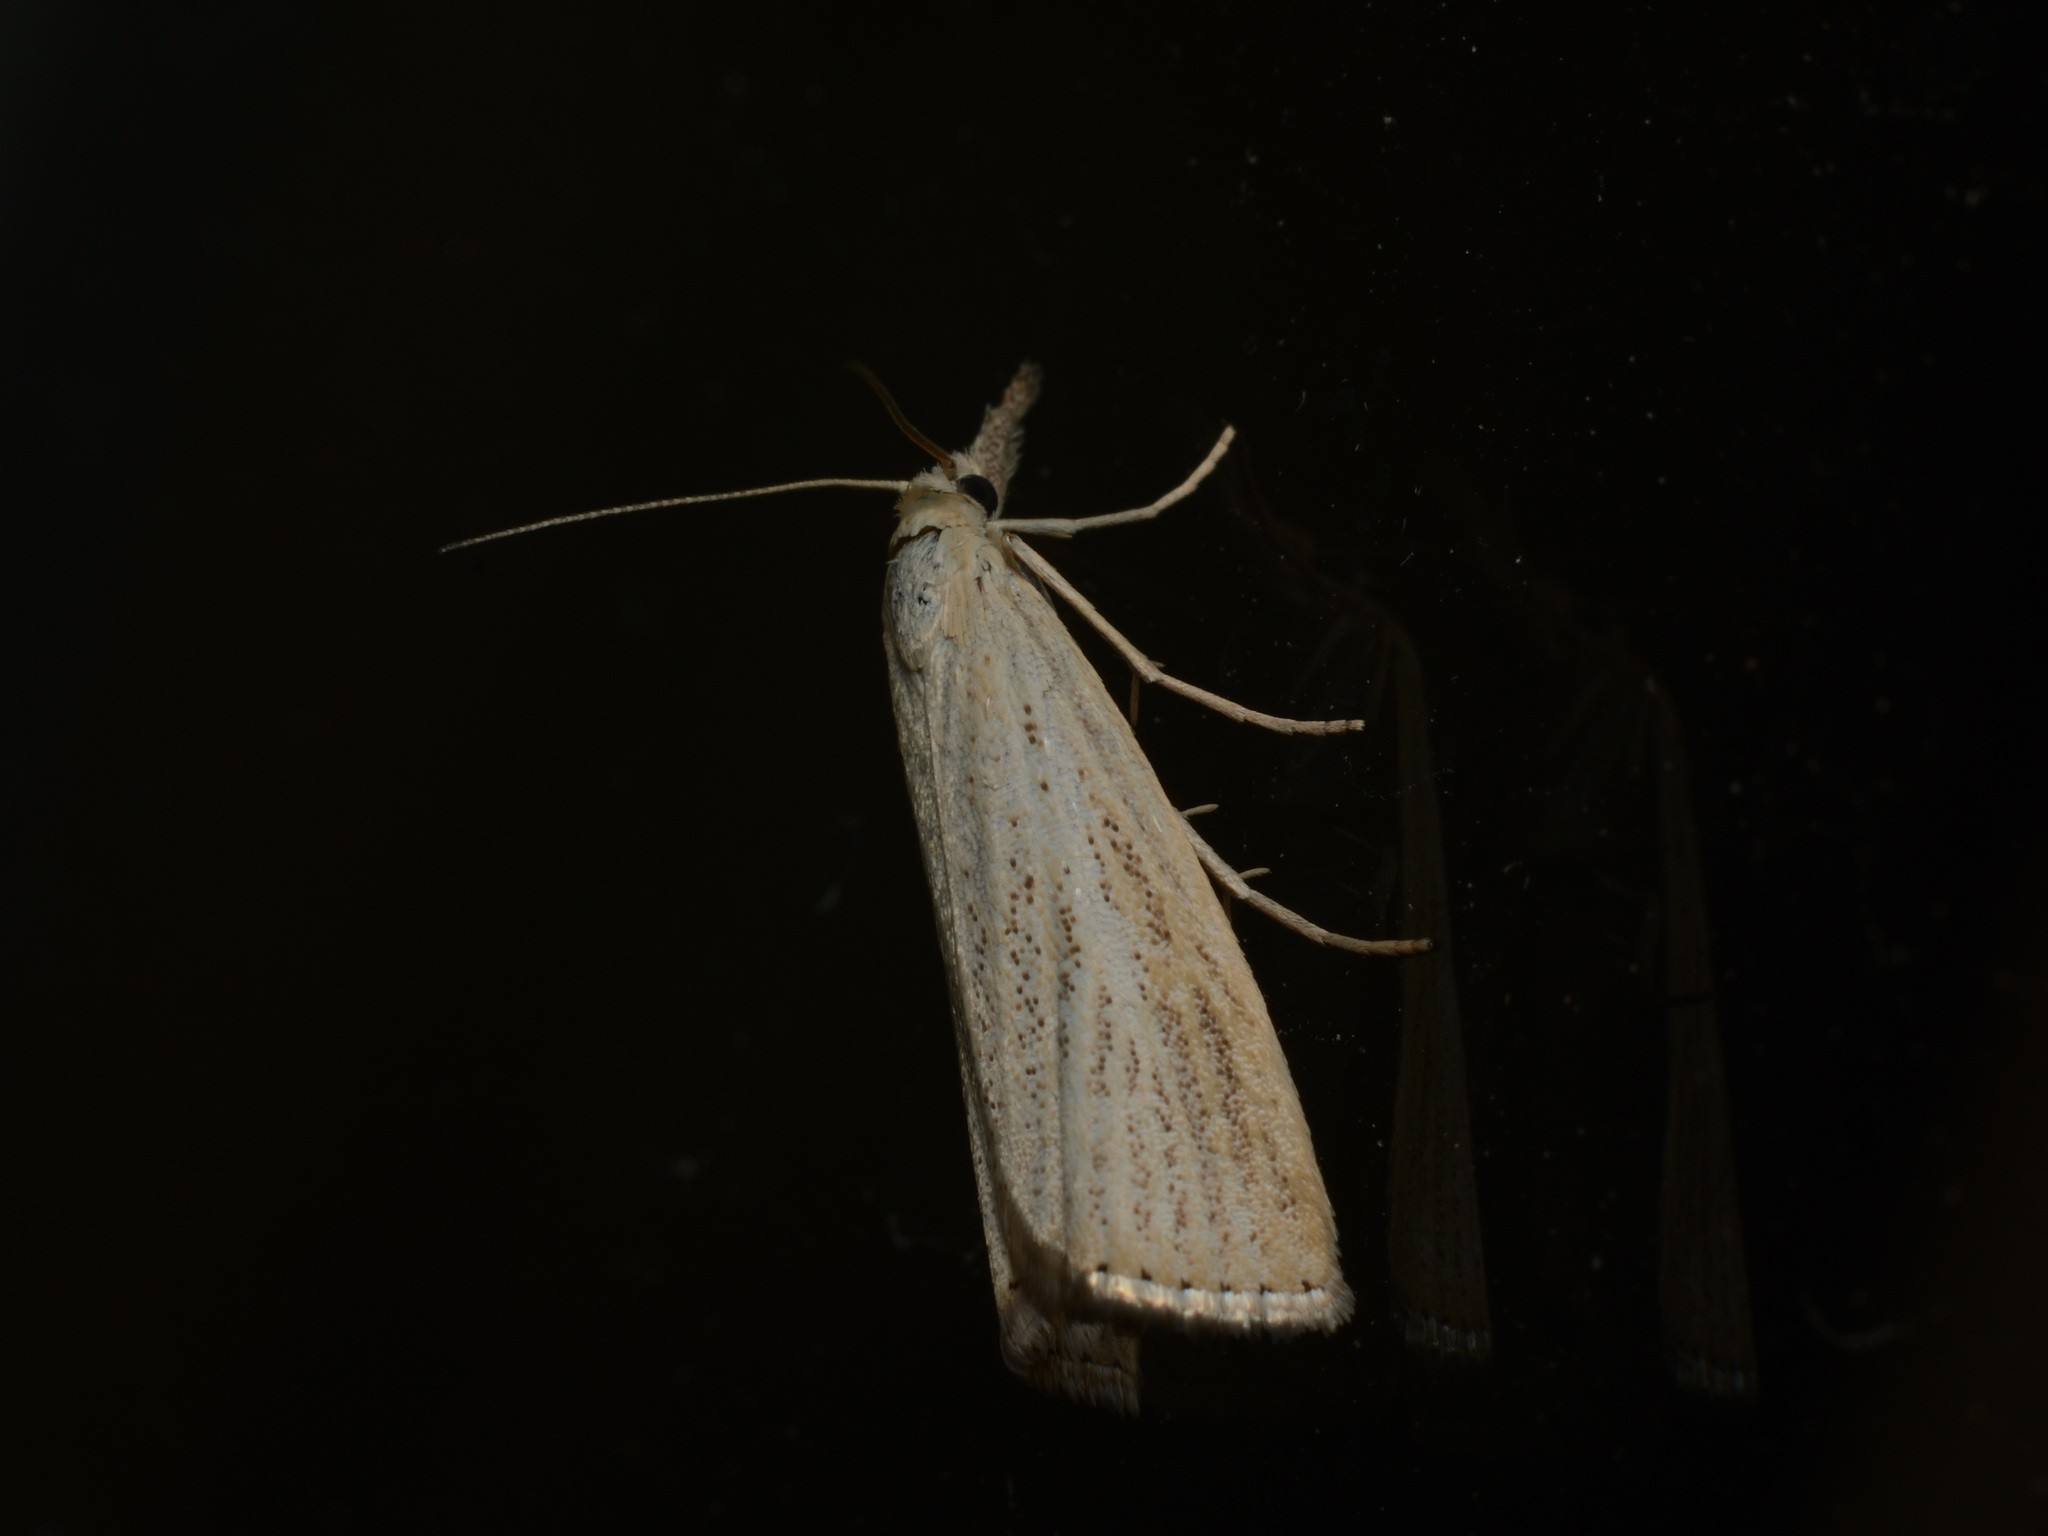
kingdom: Animalia
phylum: Arthropoda
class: Insecta
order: Lepidoptera
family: Crambidae
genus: Agriphila
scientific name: Agriphila straminella
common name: Straw grass-veneer
